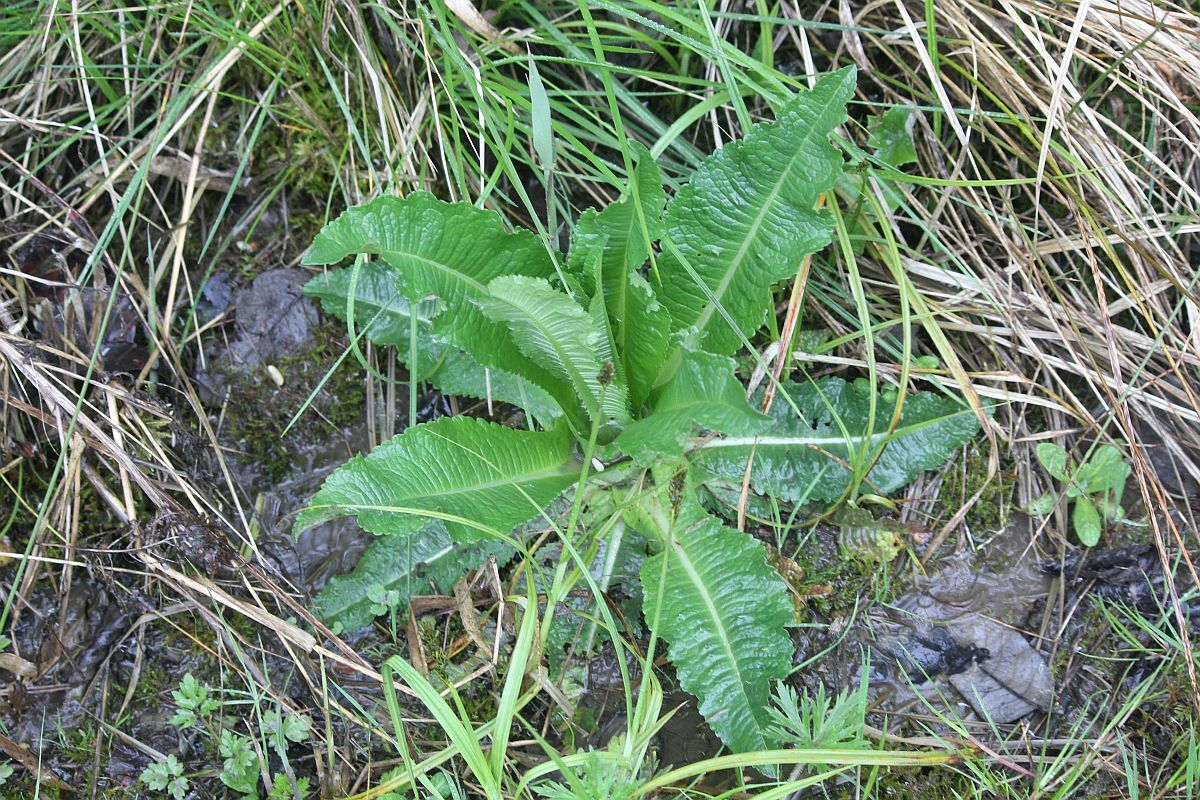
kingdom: Plantae
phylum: Tracheophyta
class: Magnoliopsida
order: Dipsacales
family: Caprifoliaceae
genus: Dipsacus
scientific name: Dipsacus fullonum
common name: Teasel
